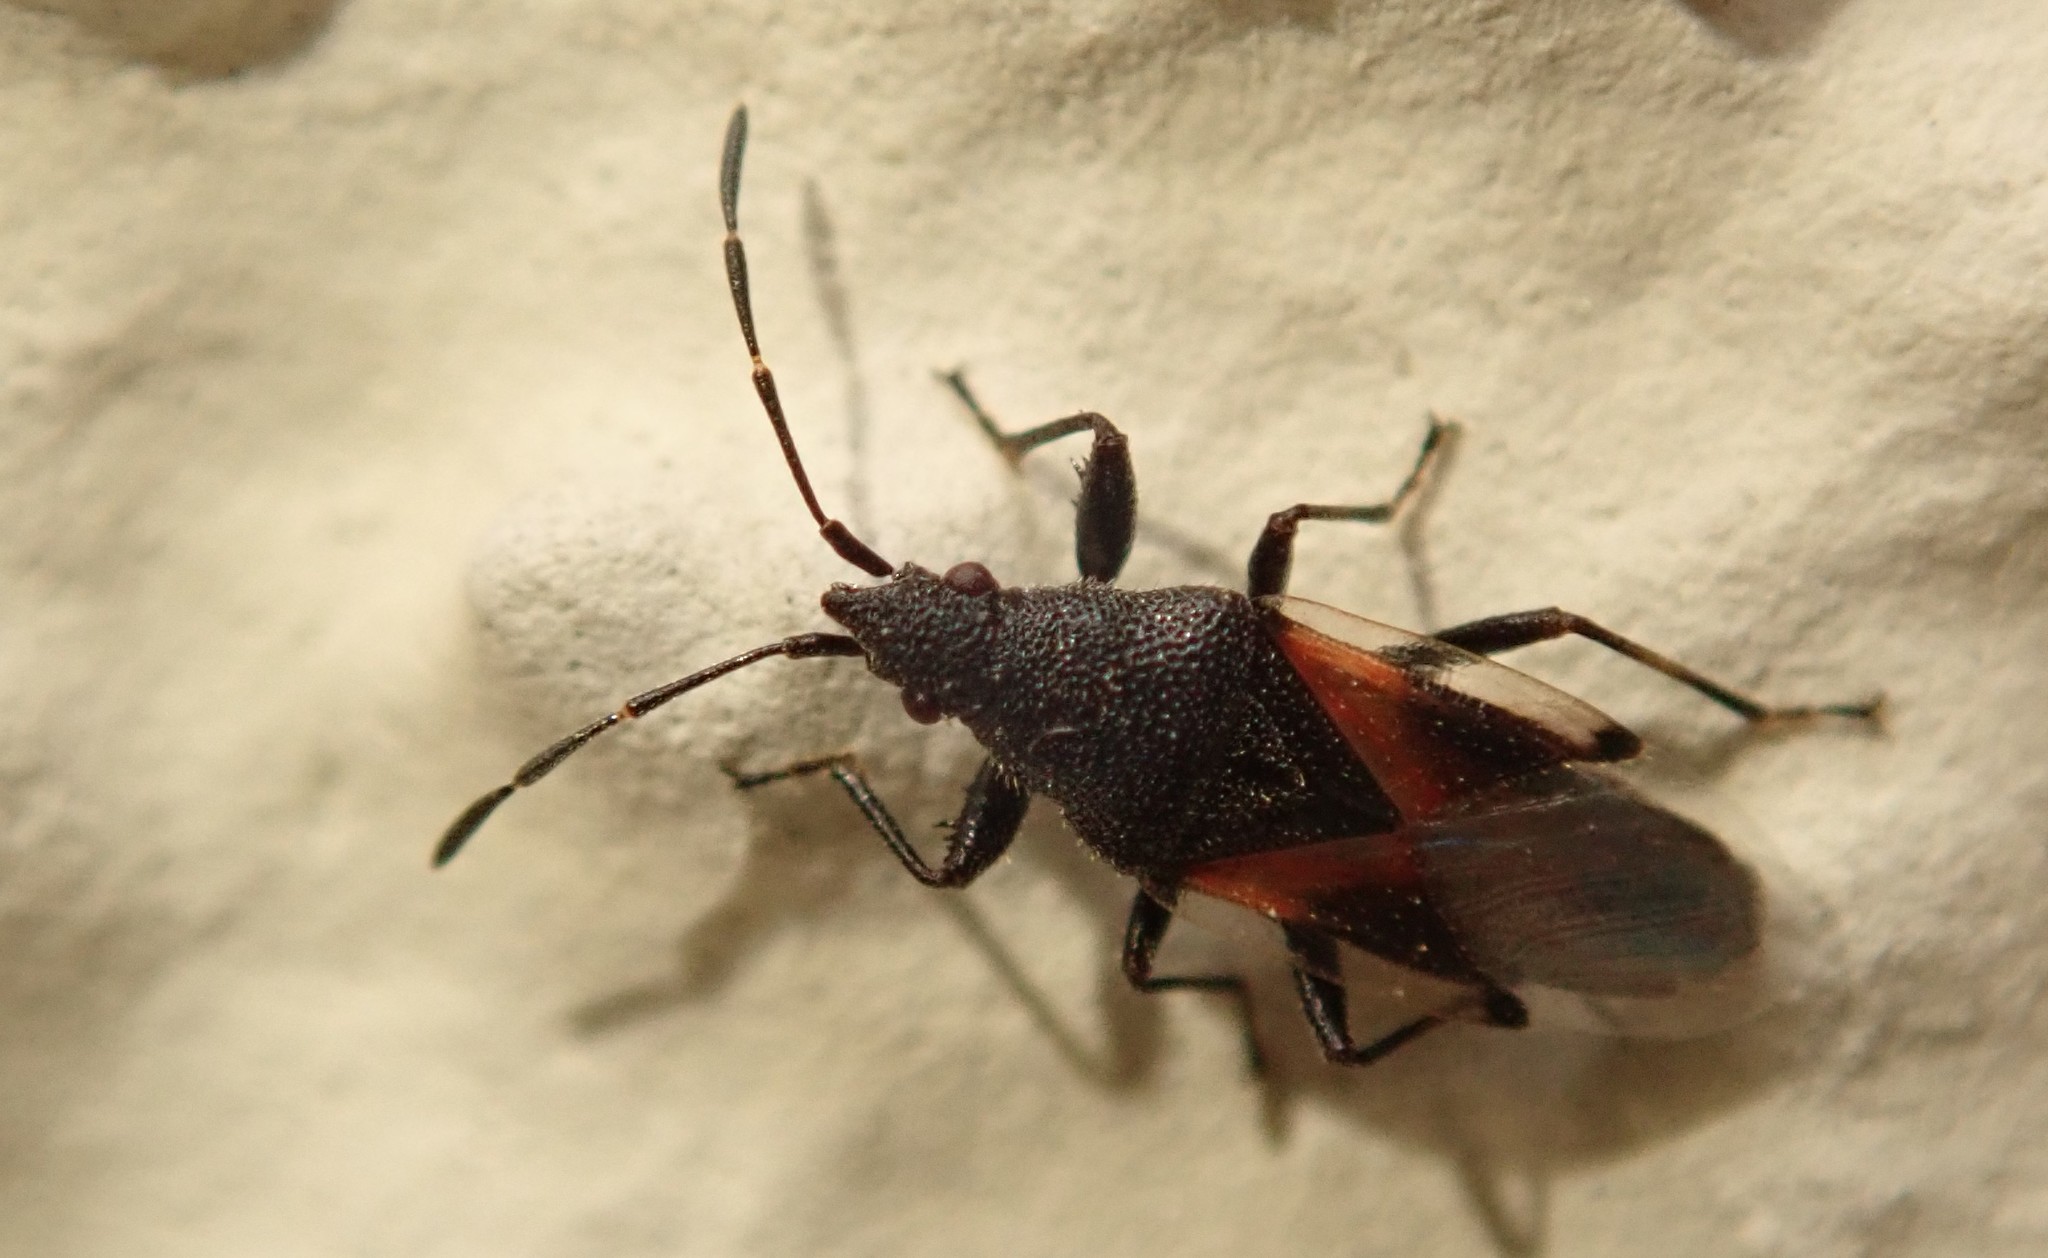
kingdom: Animalia
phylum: Arthropoda
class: Insecta
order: Hemiptera
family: Oxycarenidae
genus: Oxycarenus
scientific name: Oxycarenus lavaterae
